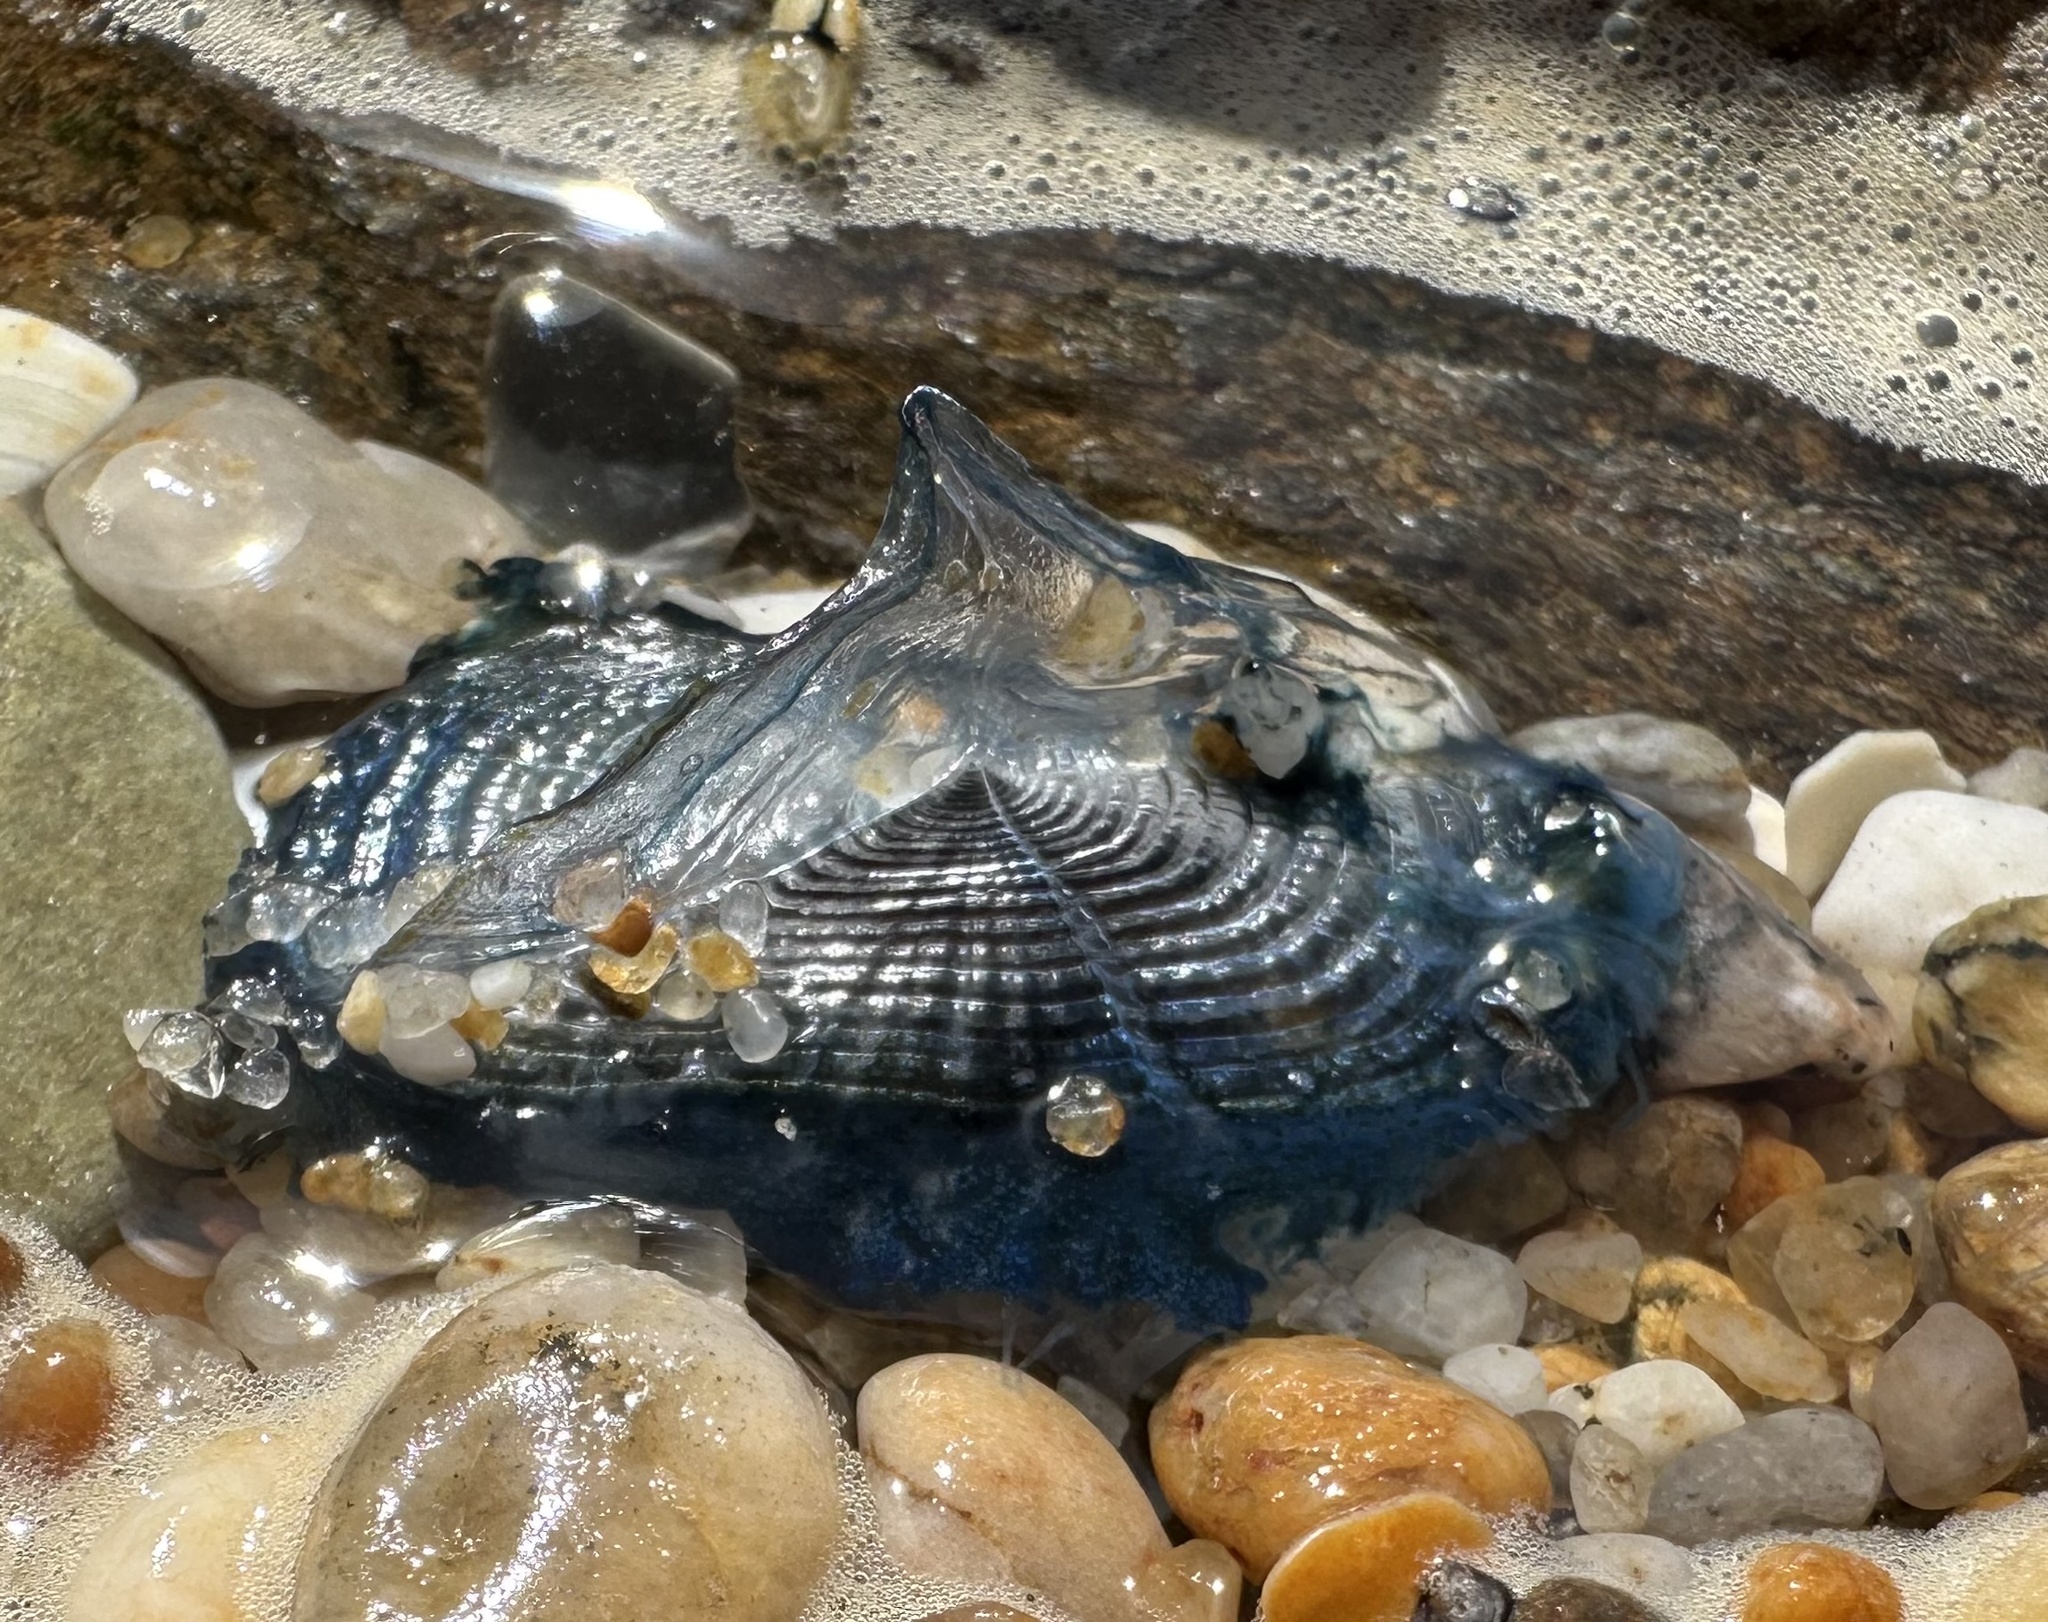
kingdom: Animalia
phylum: Cnidaria
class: Hydrozoa
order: Anthoathecata
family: Porpitidae
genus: Velella
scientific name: Velella velella
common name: By-the-wind-sailor
